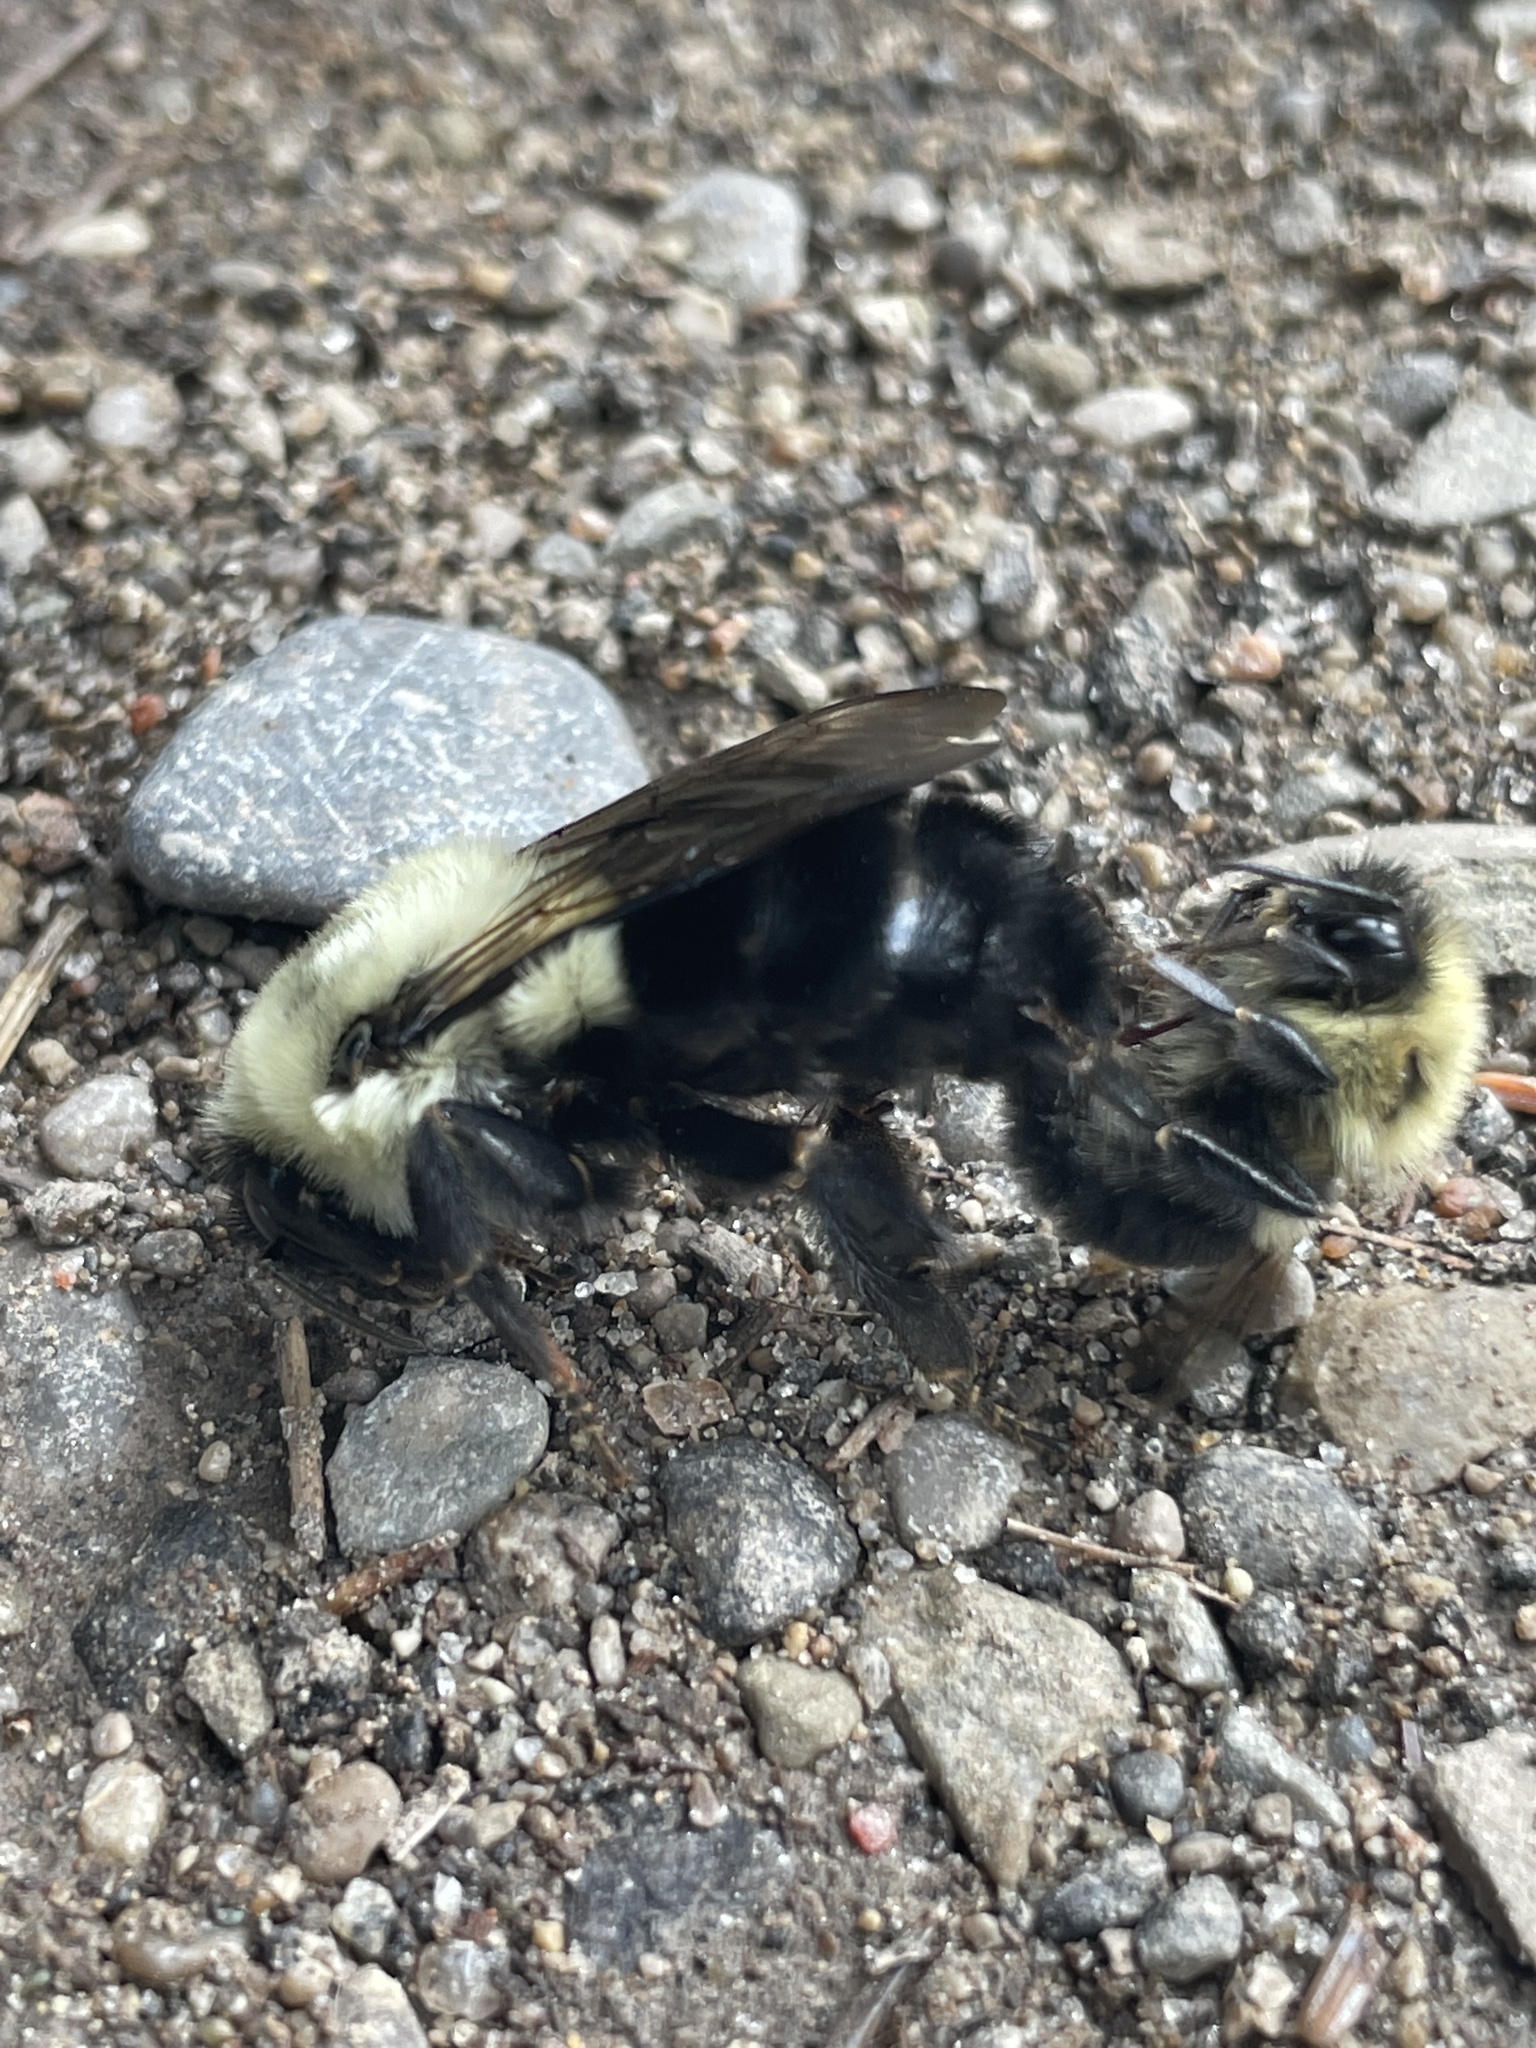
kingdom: Animalia
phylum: Arthropoda
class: Insecta
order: Hymenoptera
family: Apidae
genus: Bombus
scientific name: Bombus impatiens
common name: Common eastern bumble bee
